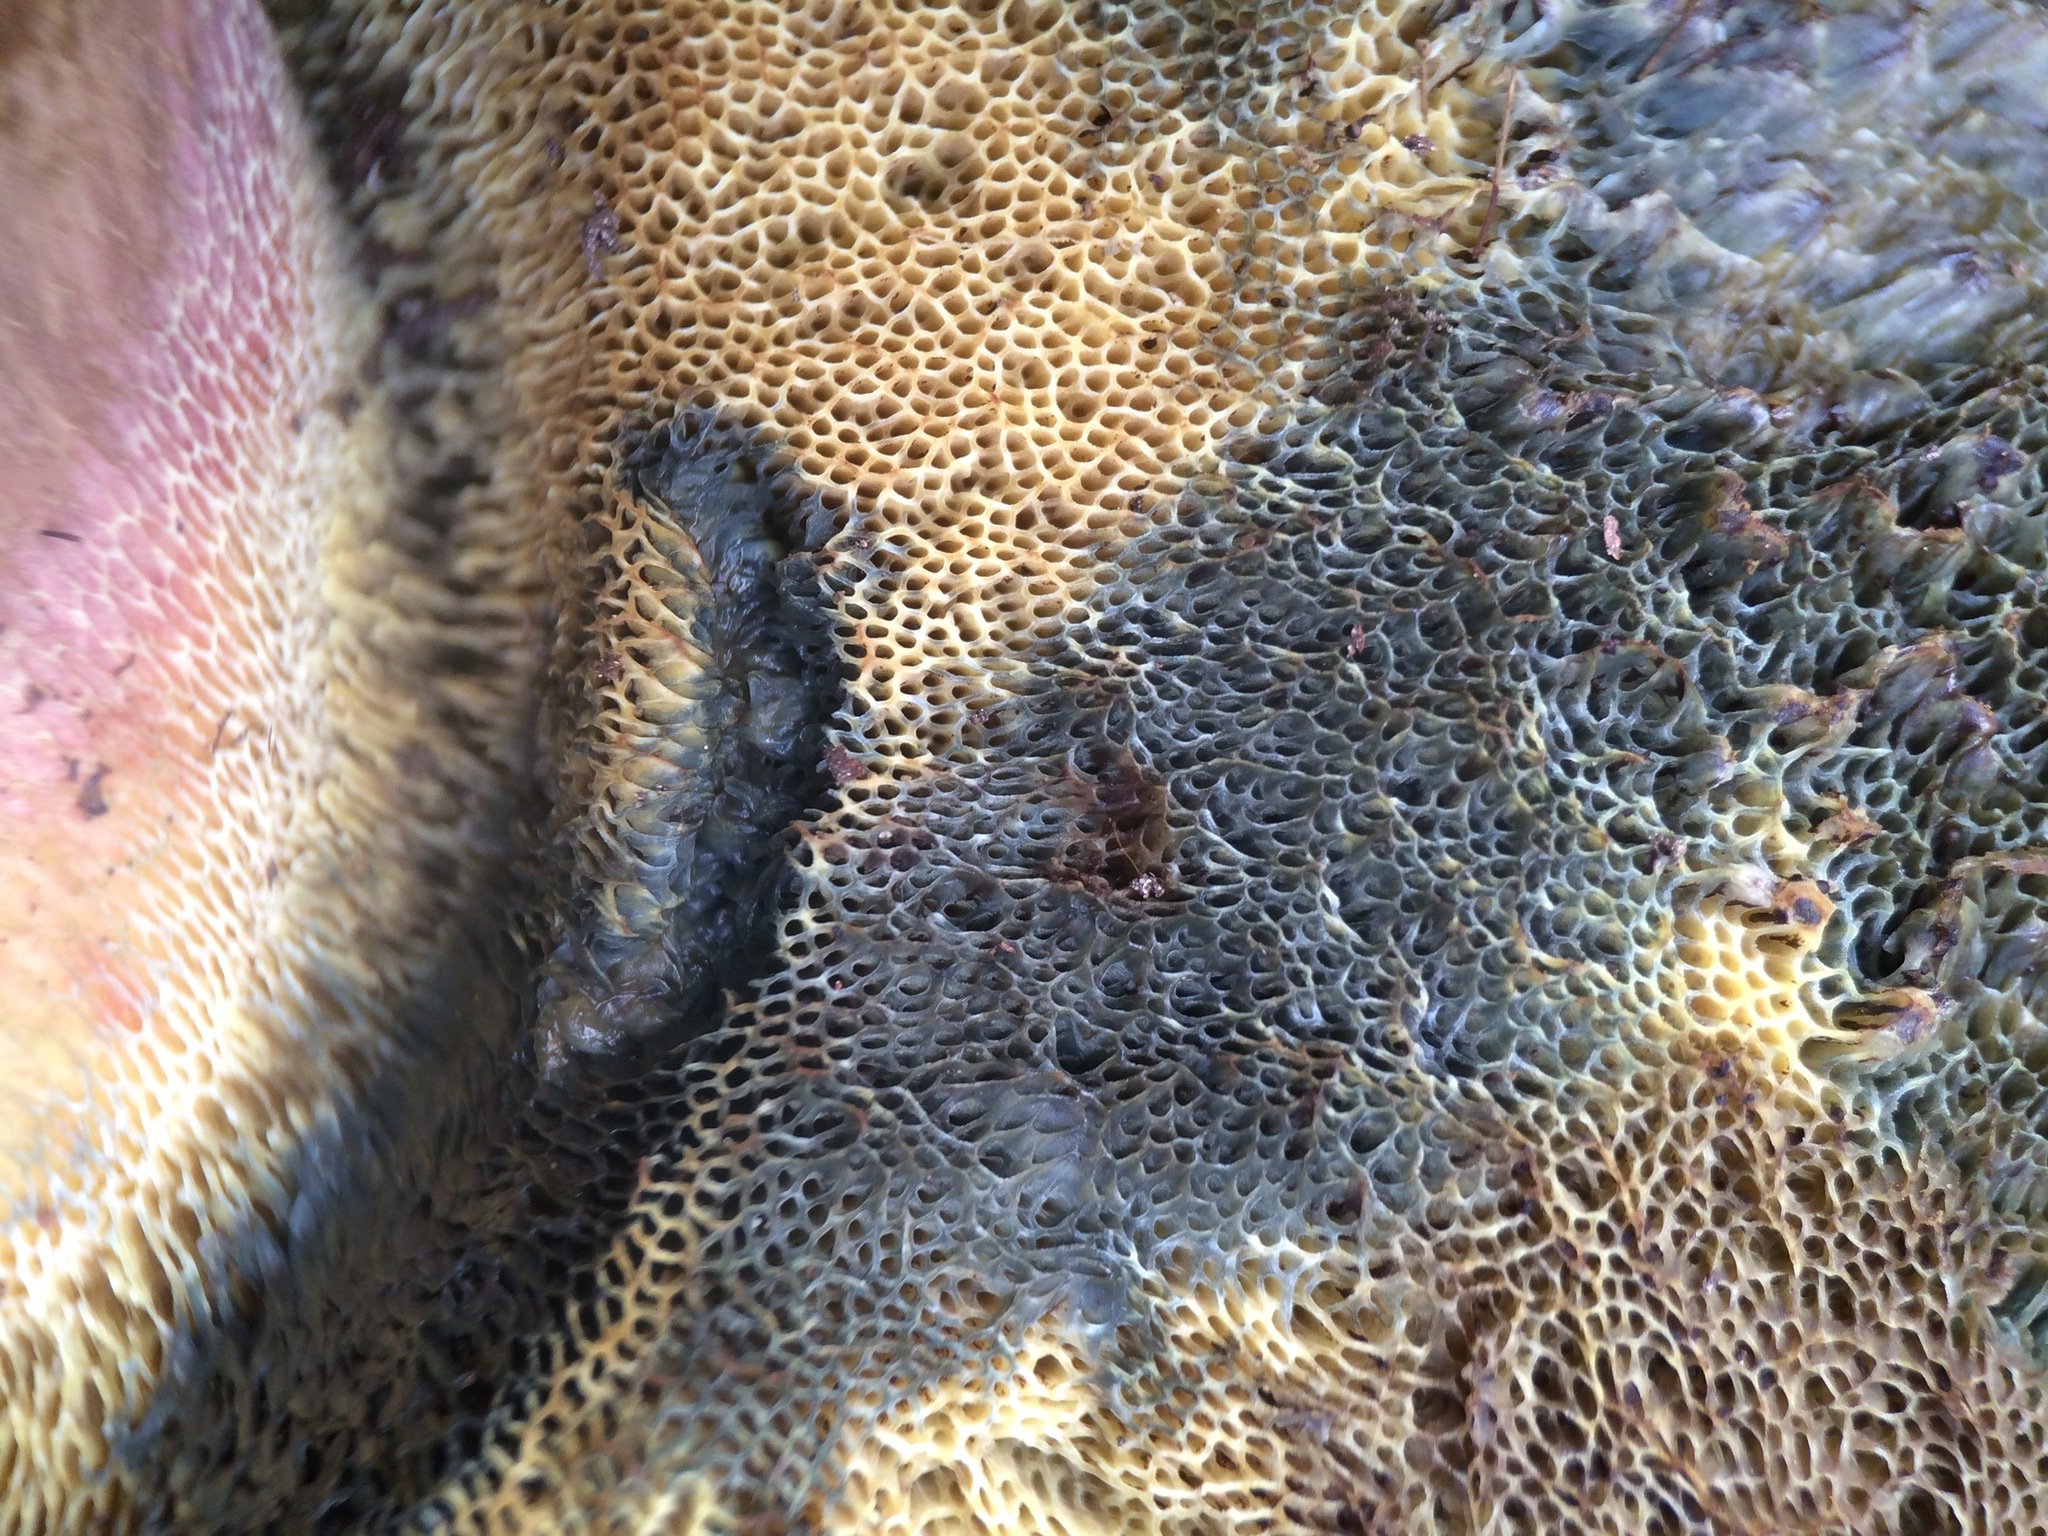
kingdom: Fungi
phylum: Basidiomycota
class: Agaricomycetes
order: Boletales
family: Boletaceae
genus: Caloboletus
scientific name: Caloboletus frustosus
